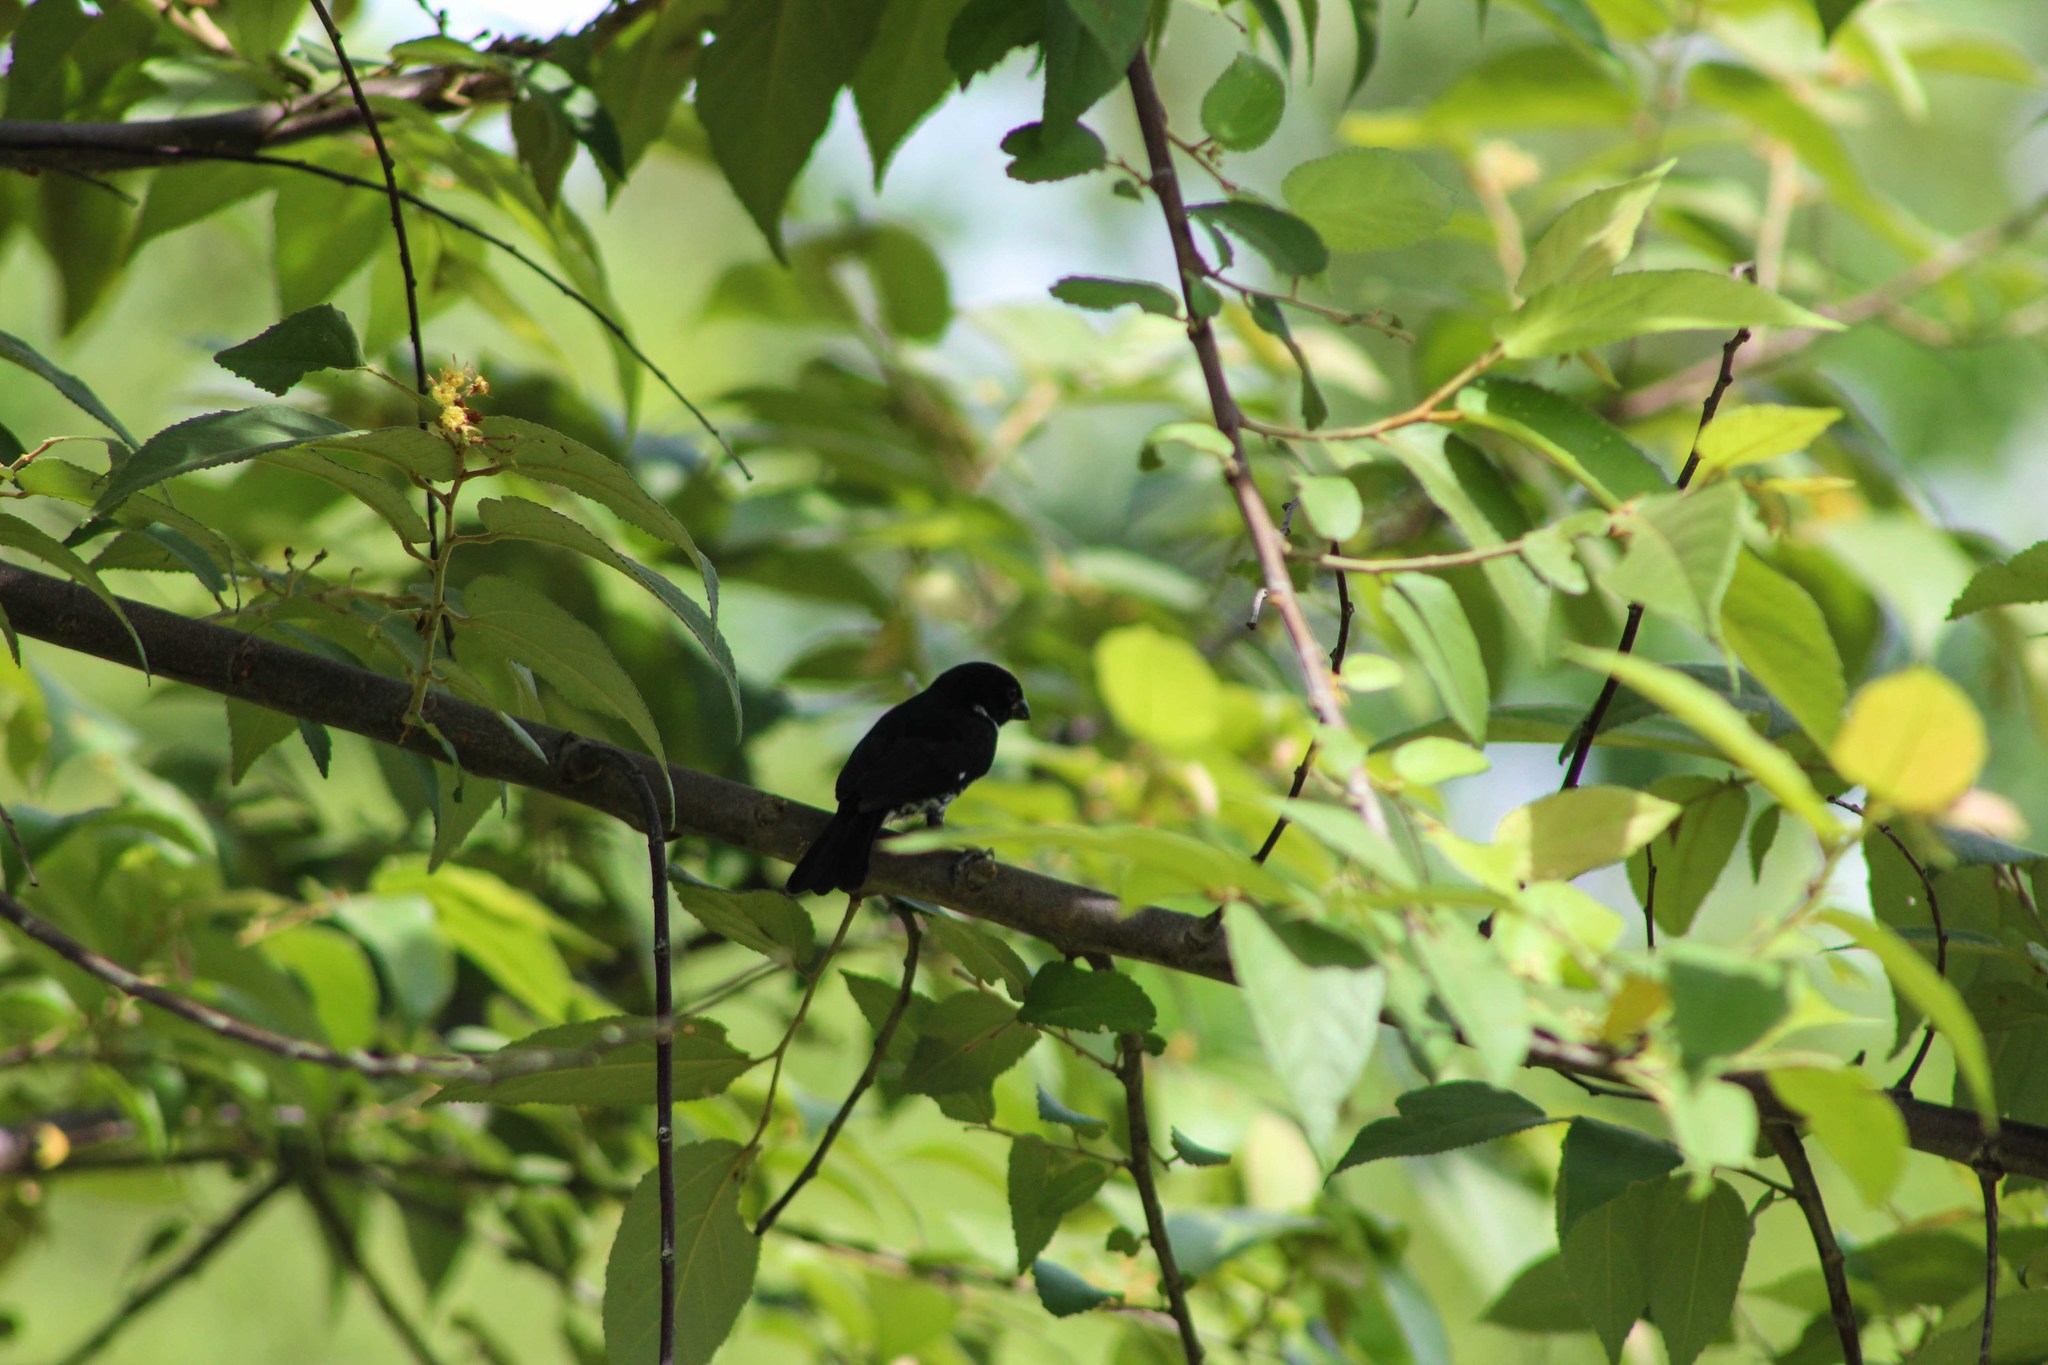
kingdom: Animalia
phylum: Chordata
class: Aves
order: Passeriformes
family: Thraupidae
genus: Sporophila
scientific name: Sporophila corvina
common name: Variable seedeater
